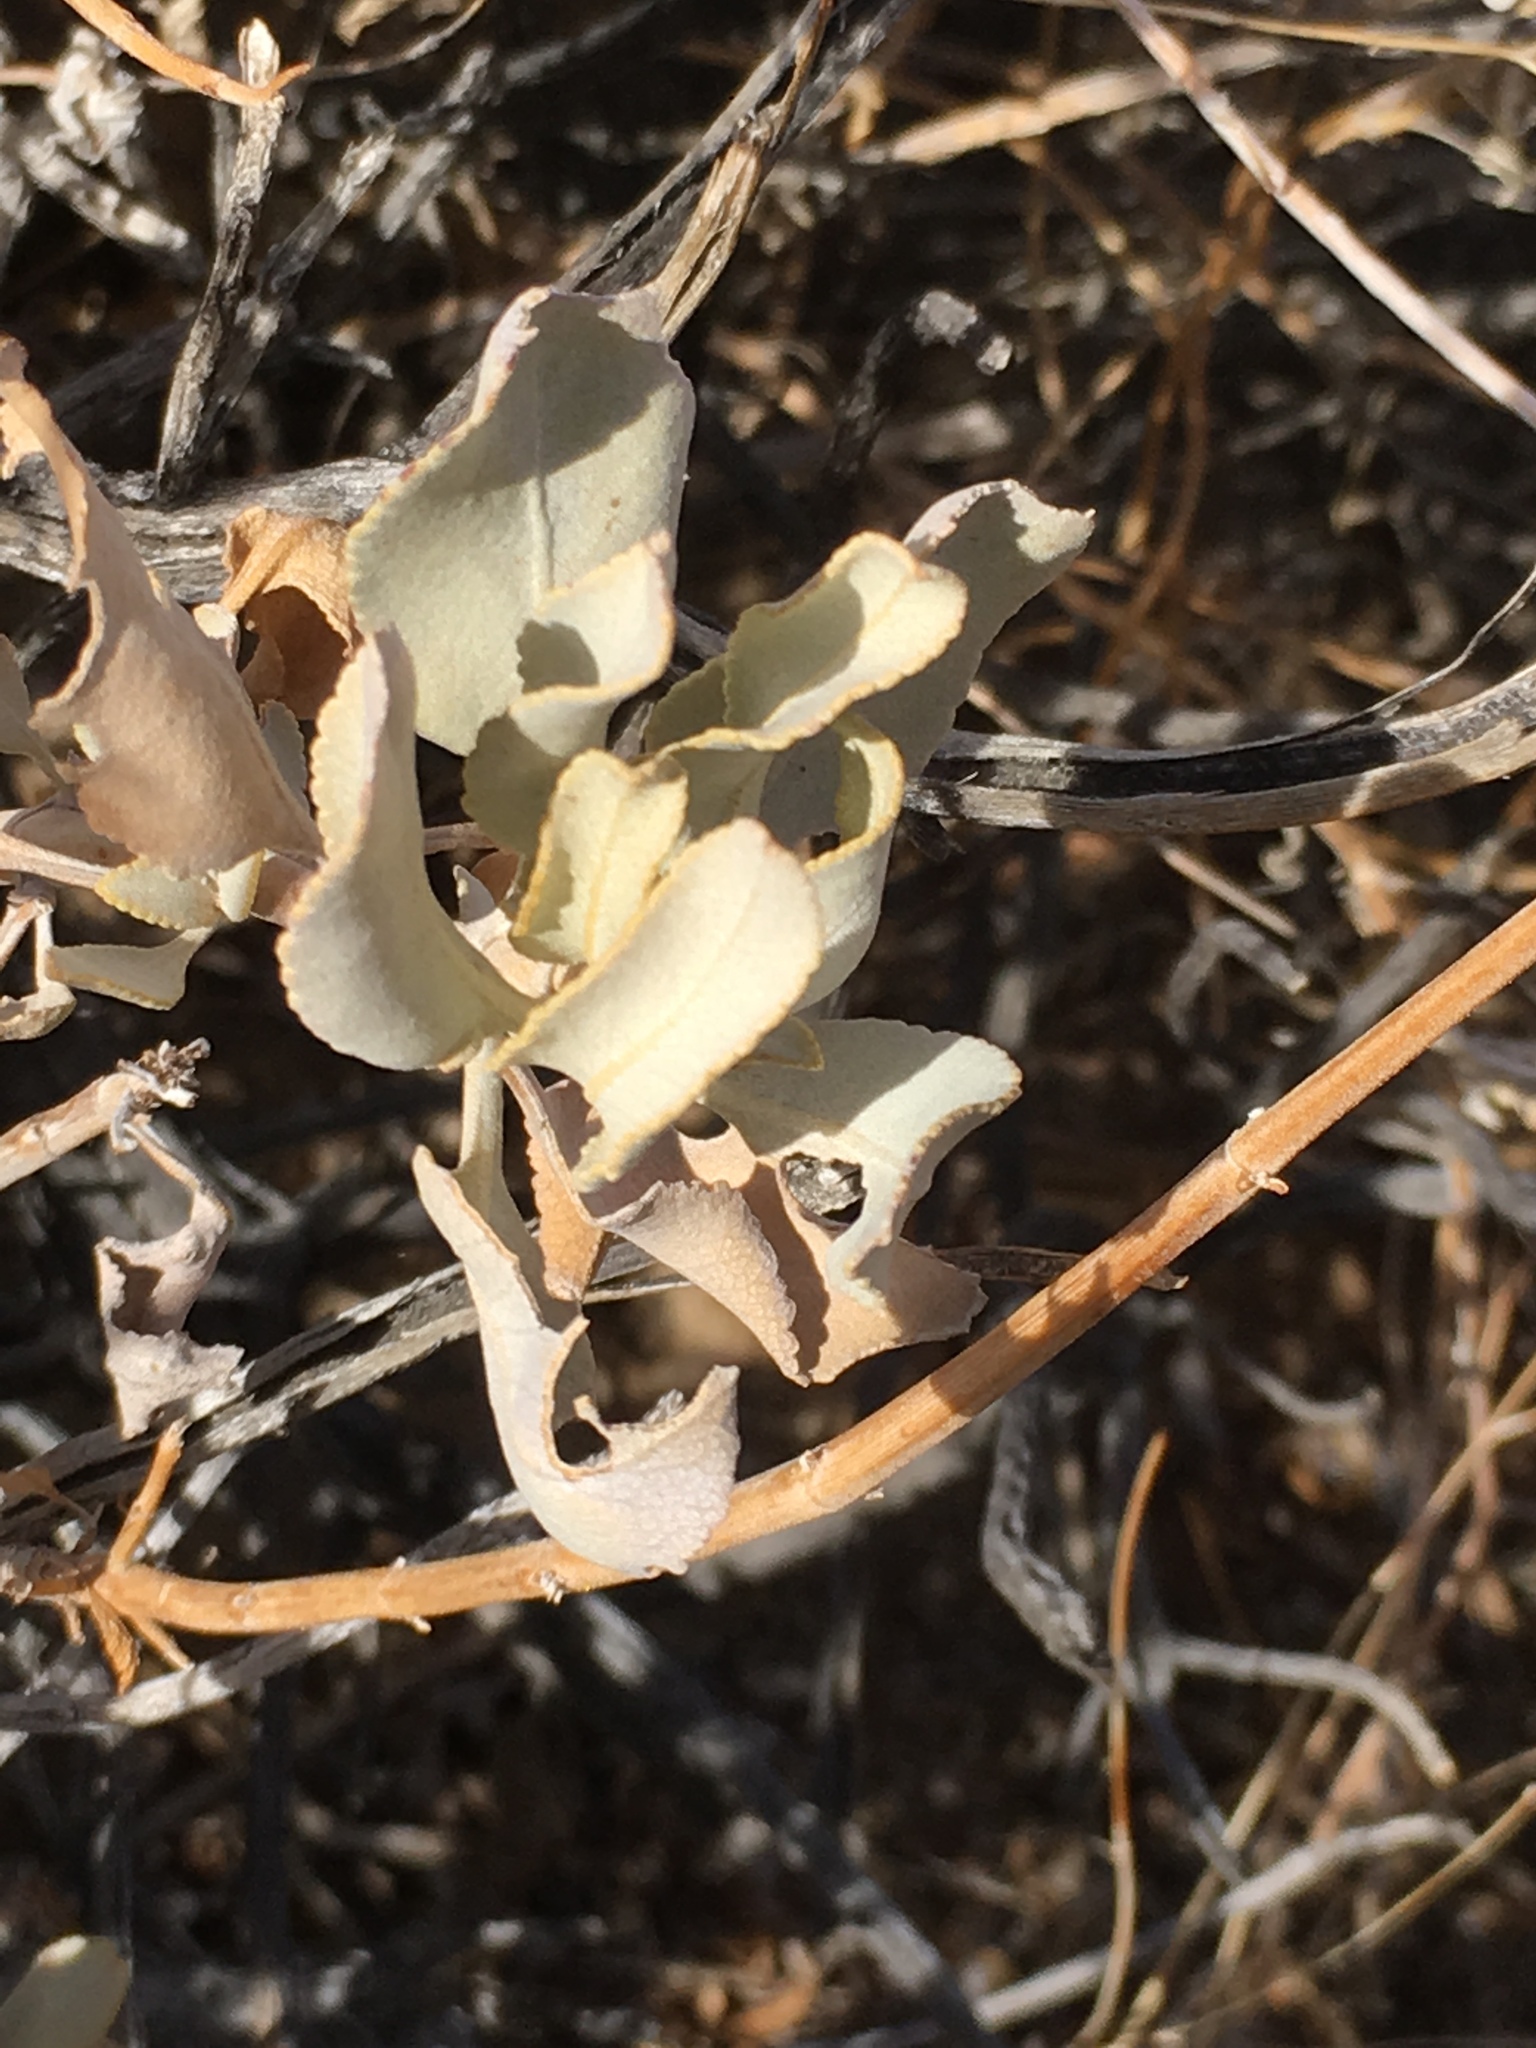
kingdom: Plantae
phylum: Tracheophyta
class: Magnoliopsida
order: Lamiales
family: Lamiaceae
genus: Salvia
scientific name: Salvia vaseyi
